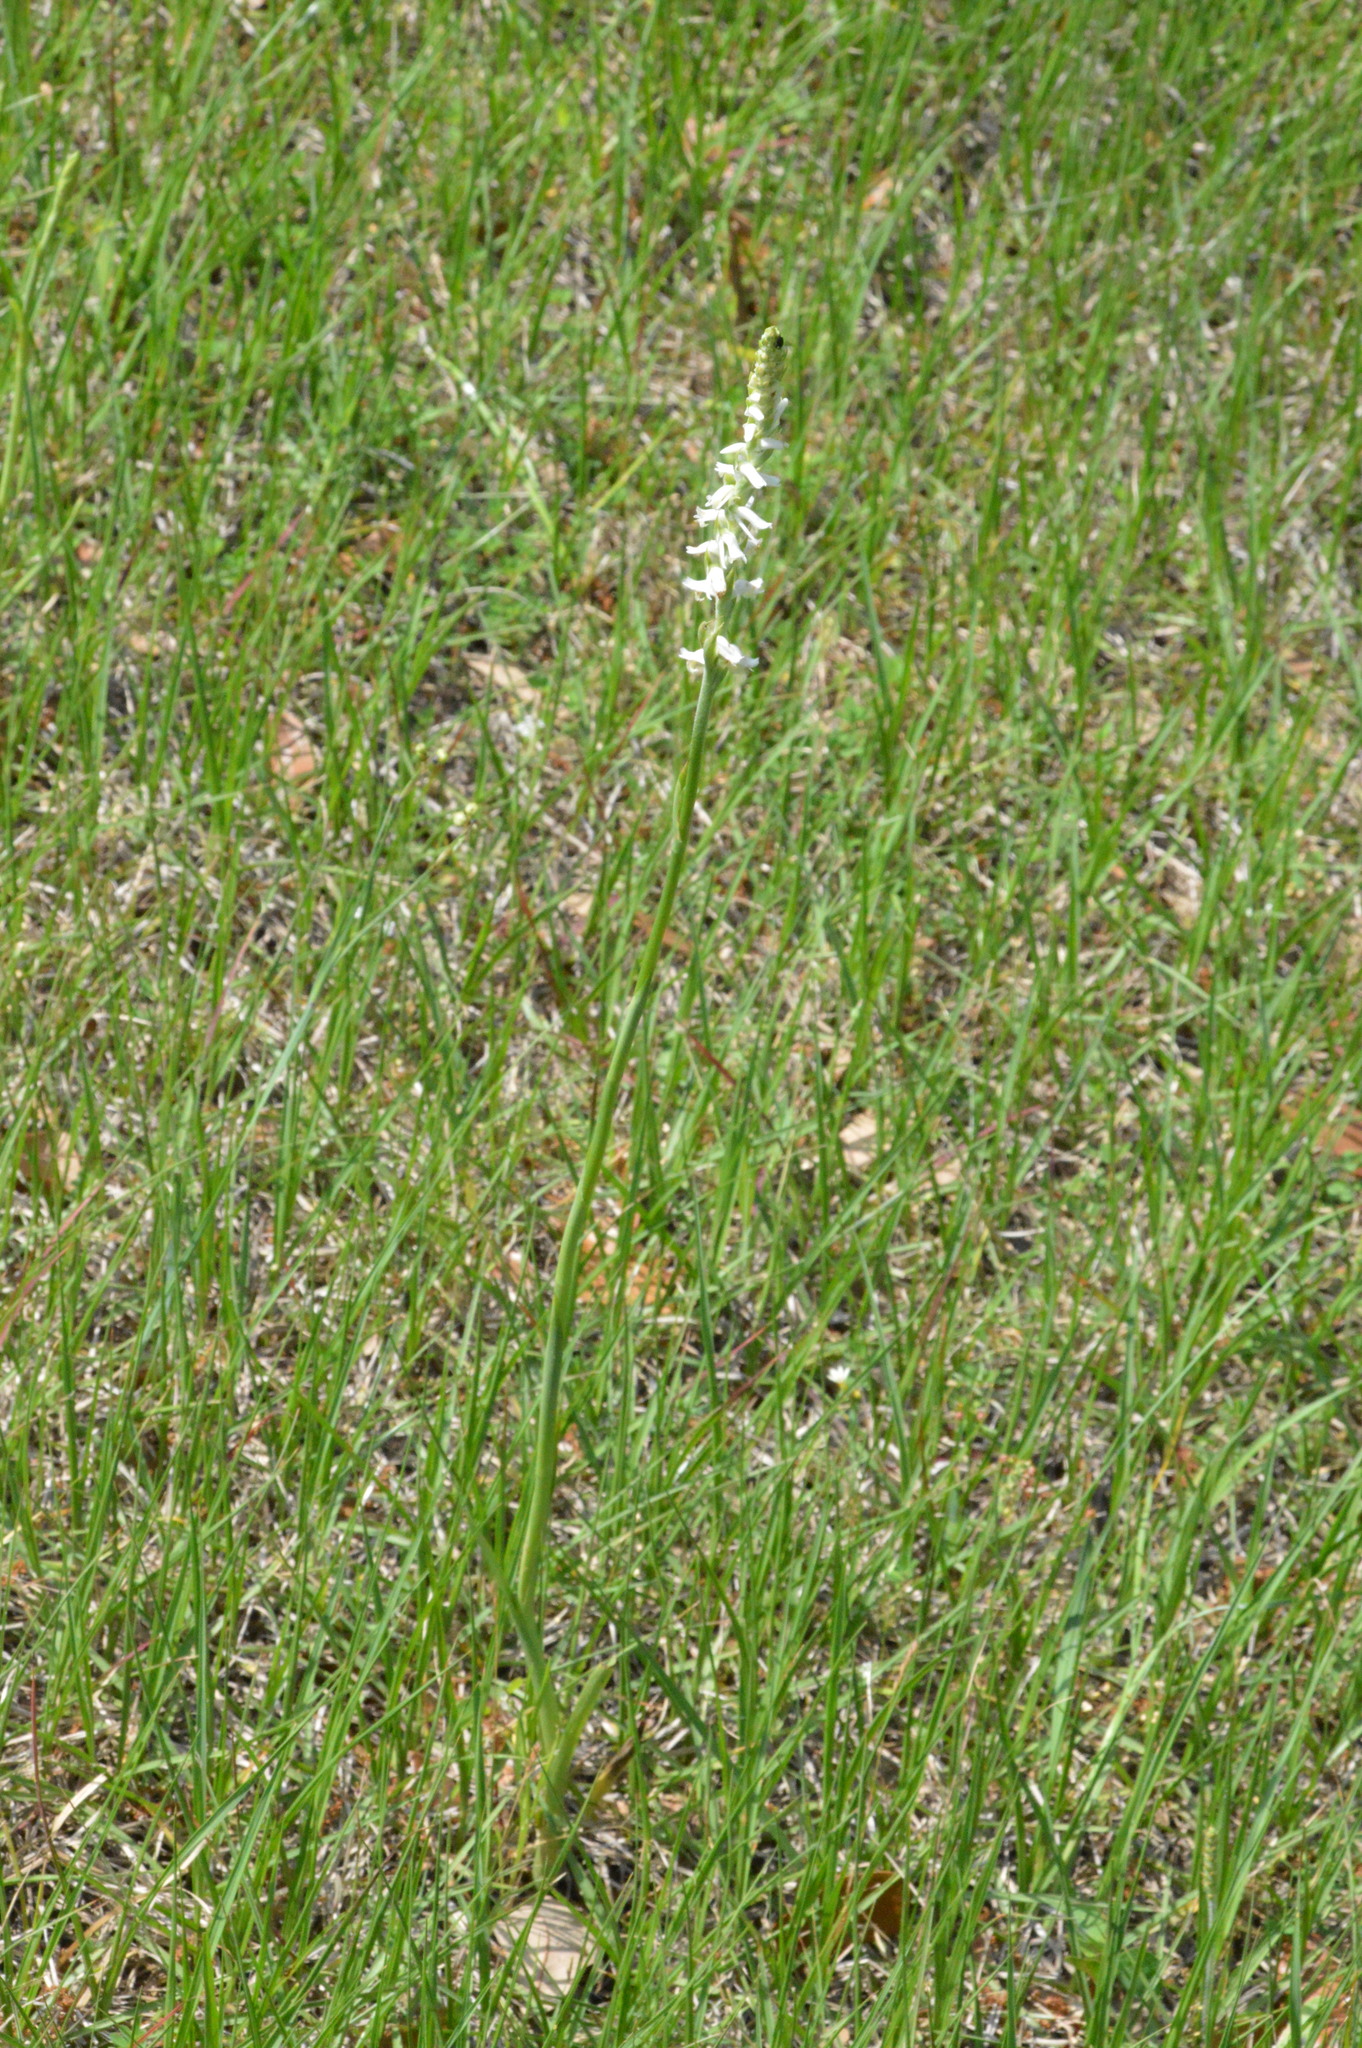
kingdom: Plantae
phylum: Tracheophyta
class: Liliopsida
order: Asparagales
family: Orchidaceae
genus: Spiranthes
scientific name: Spiranthes vernalis
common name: Spring ladies'-tresses
